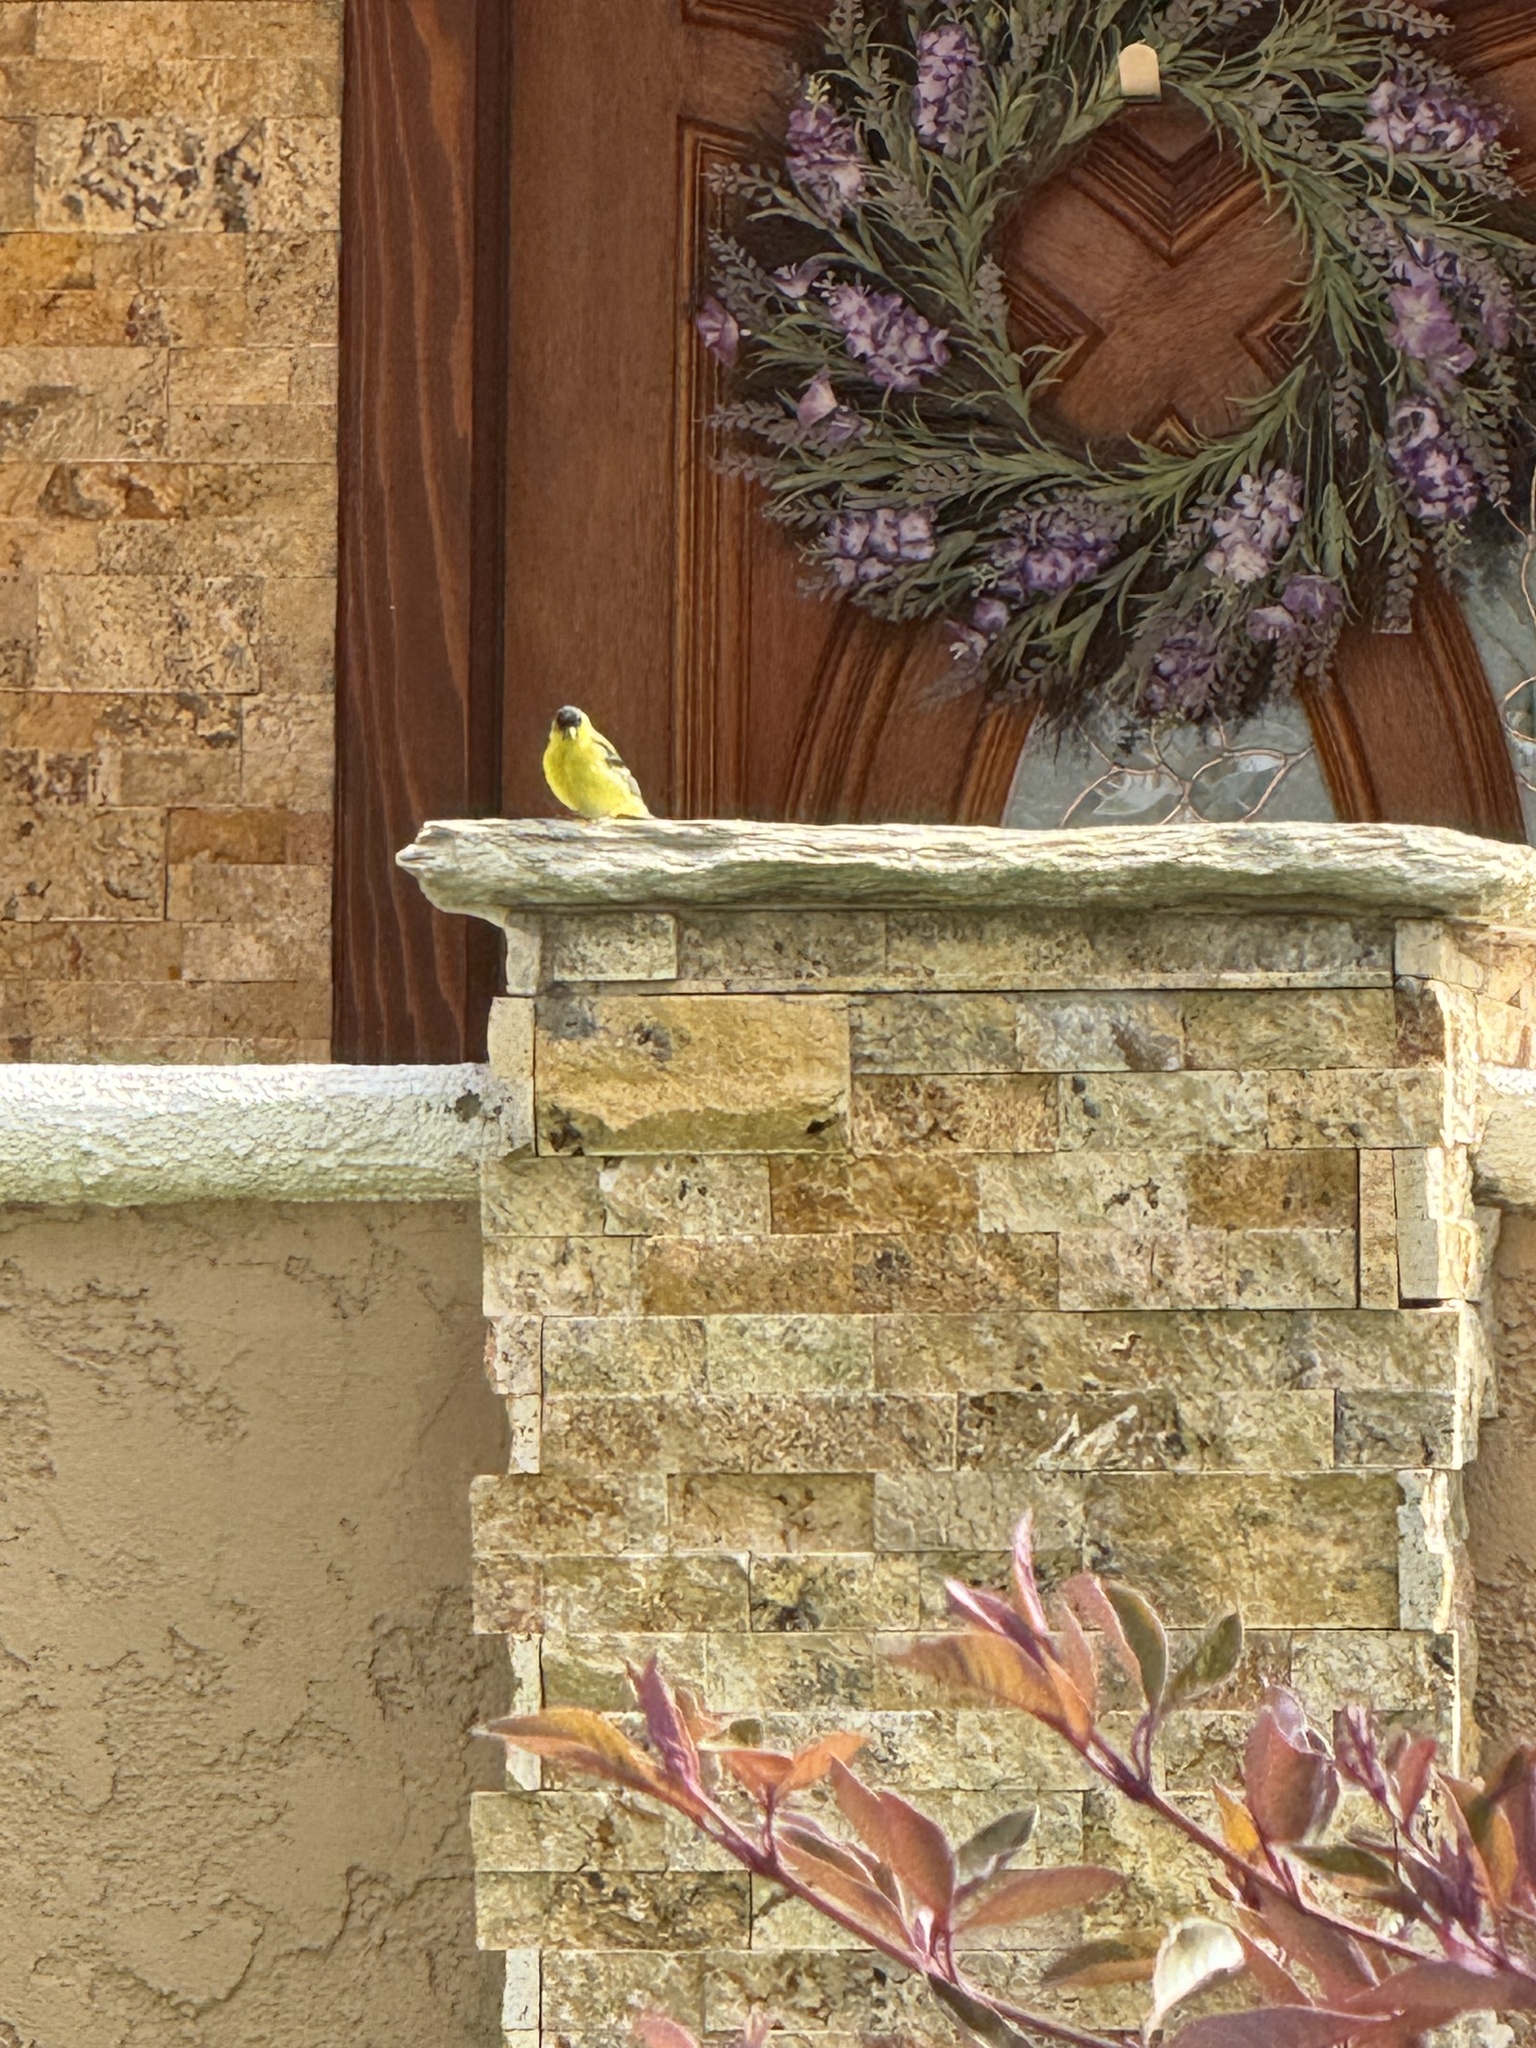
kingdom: Animalia
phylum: Chordata
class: Aves
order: Passeriformes
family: Fringillidae
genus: Spinus
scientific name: Spinus psaltria
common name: Lesser goldfinch
